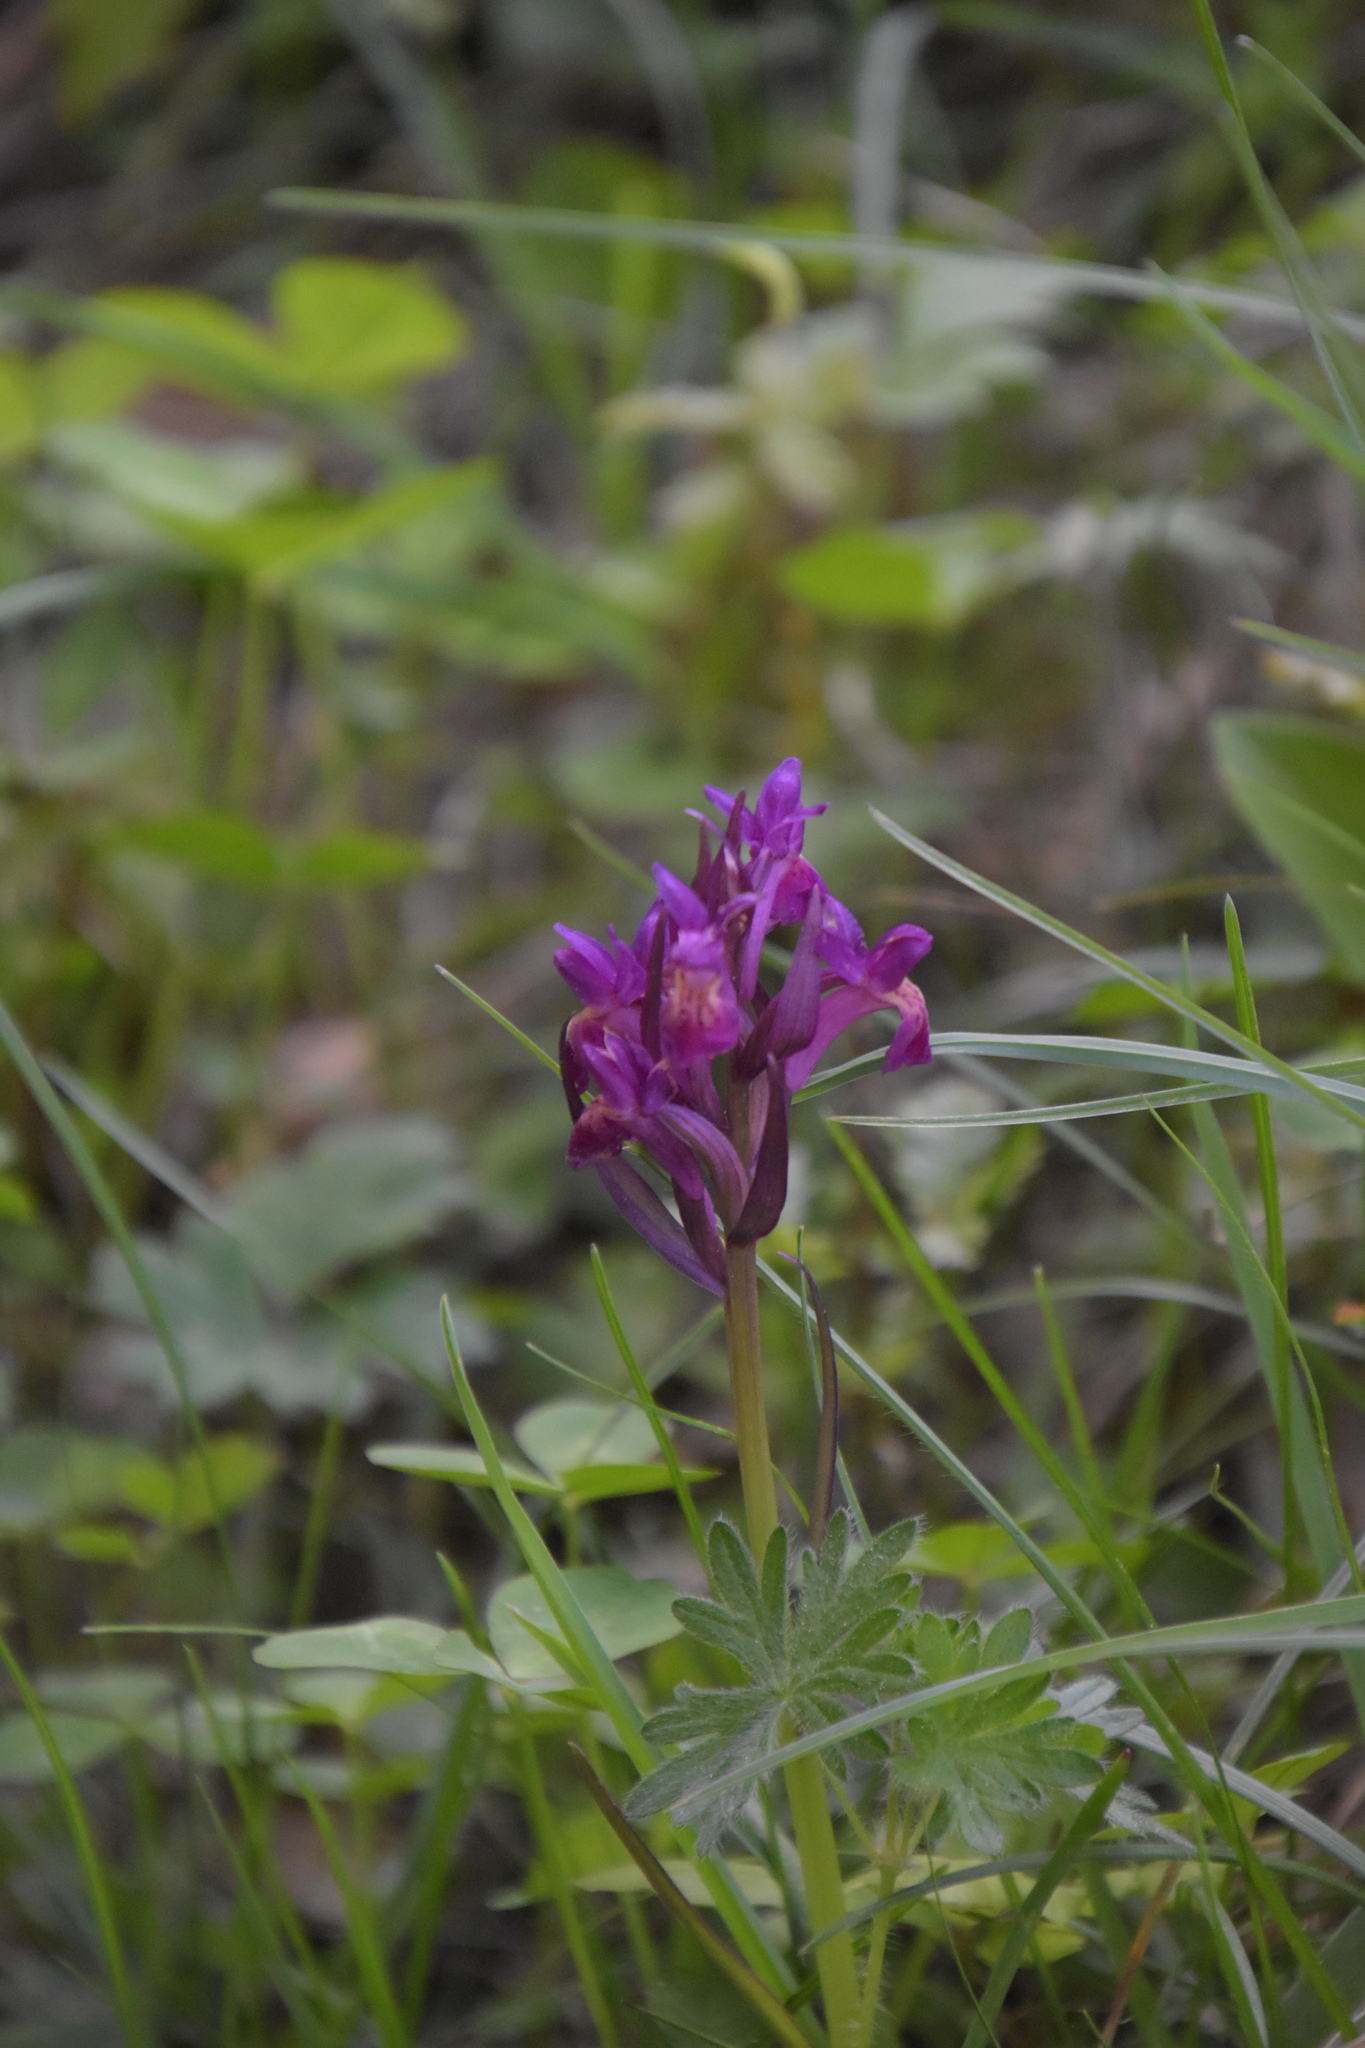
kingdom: Plantae
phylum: Tracheophyta
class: Liliopsida
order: Asparagales
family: Orchidaceae
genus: Dactylorhiza
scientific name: Dactylorhiza sambucina
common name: Elder-flowered orchid
